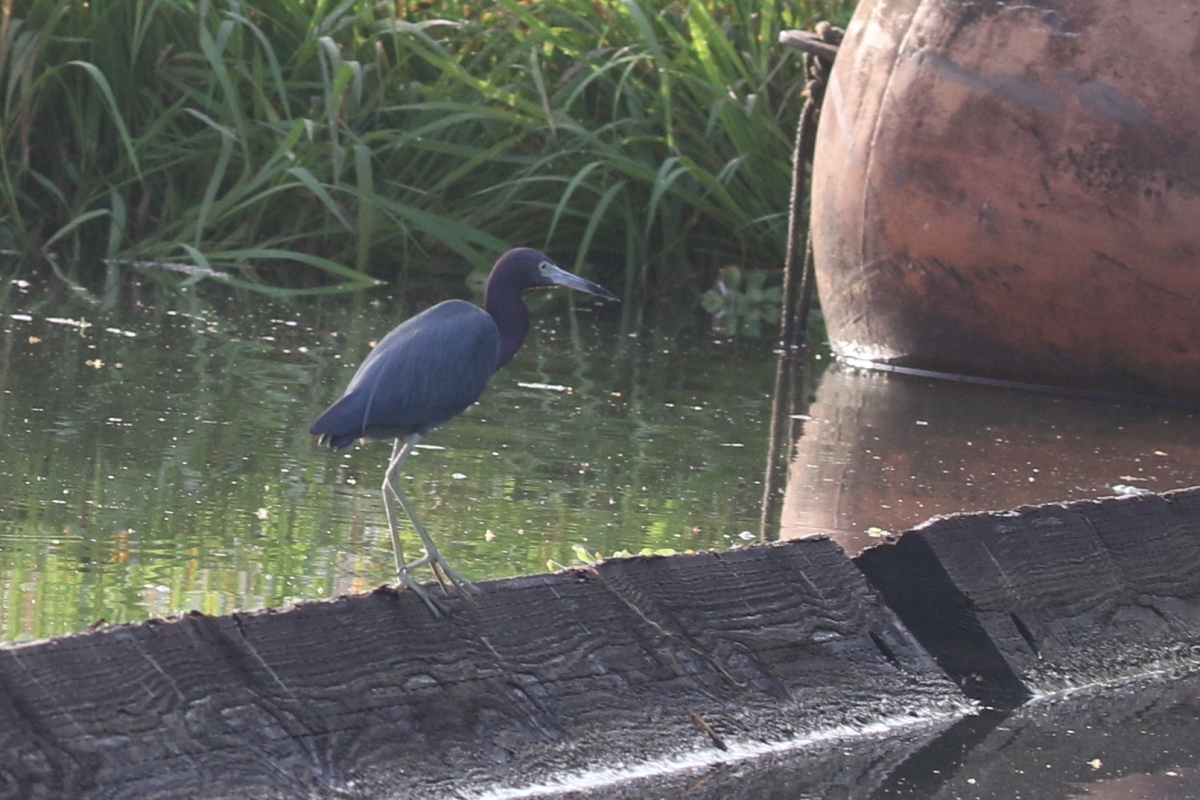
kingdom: Animalia
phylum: Chordata
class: Aves
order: Pelecaniformes
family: Ardeidae
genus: Egretta
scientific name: Egretta caerulea
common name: Little blue heron
